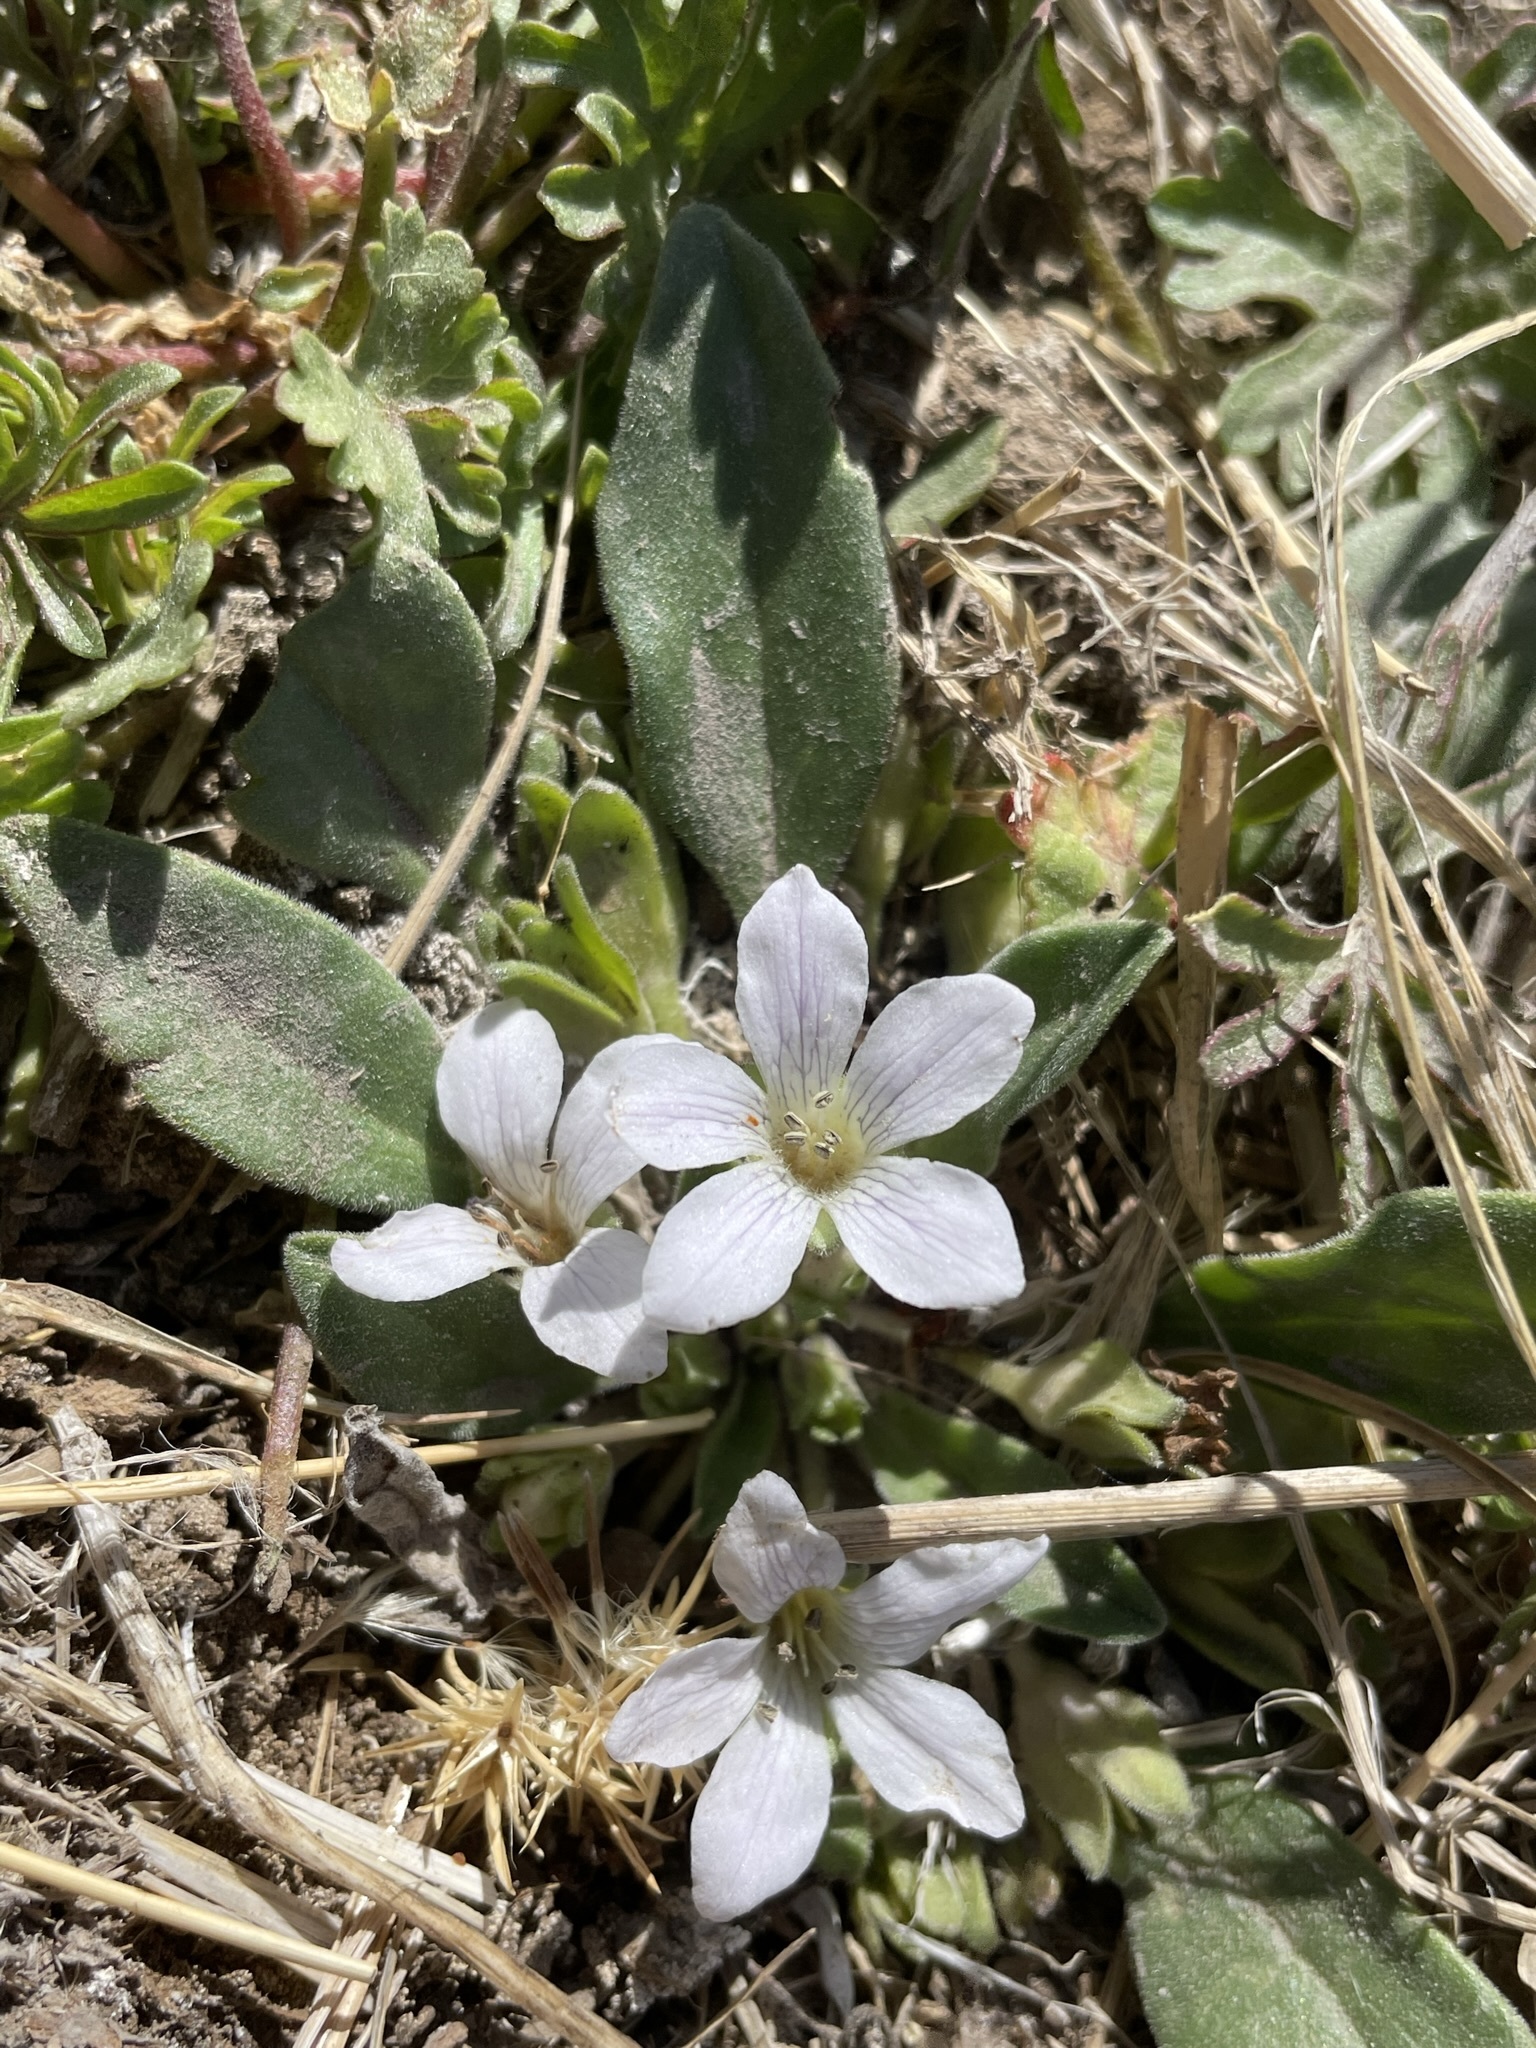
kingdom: Plantae
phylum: Tracheophyta
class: Magnoliopsida
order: Boraginales
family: Hydrophyllaceae
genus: Hesperochiron
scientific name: Hesperochiron californicus
